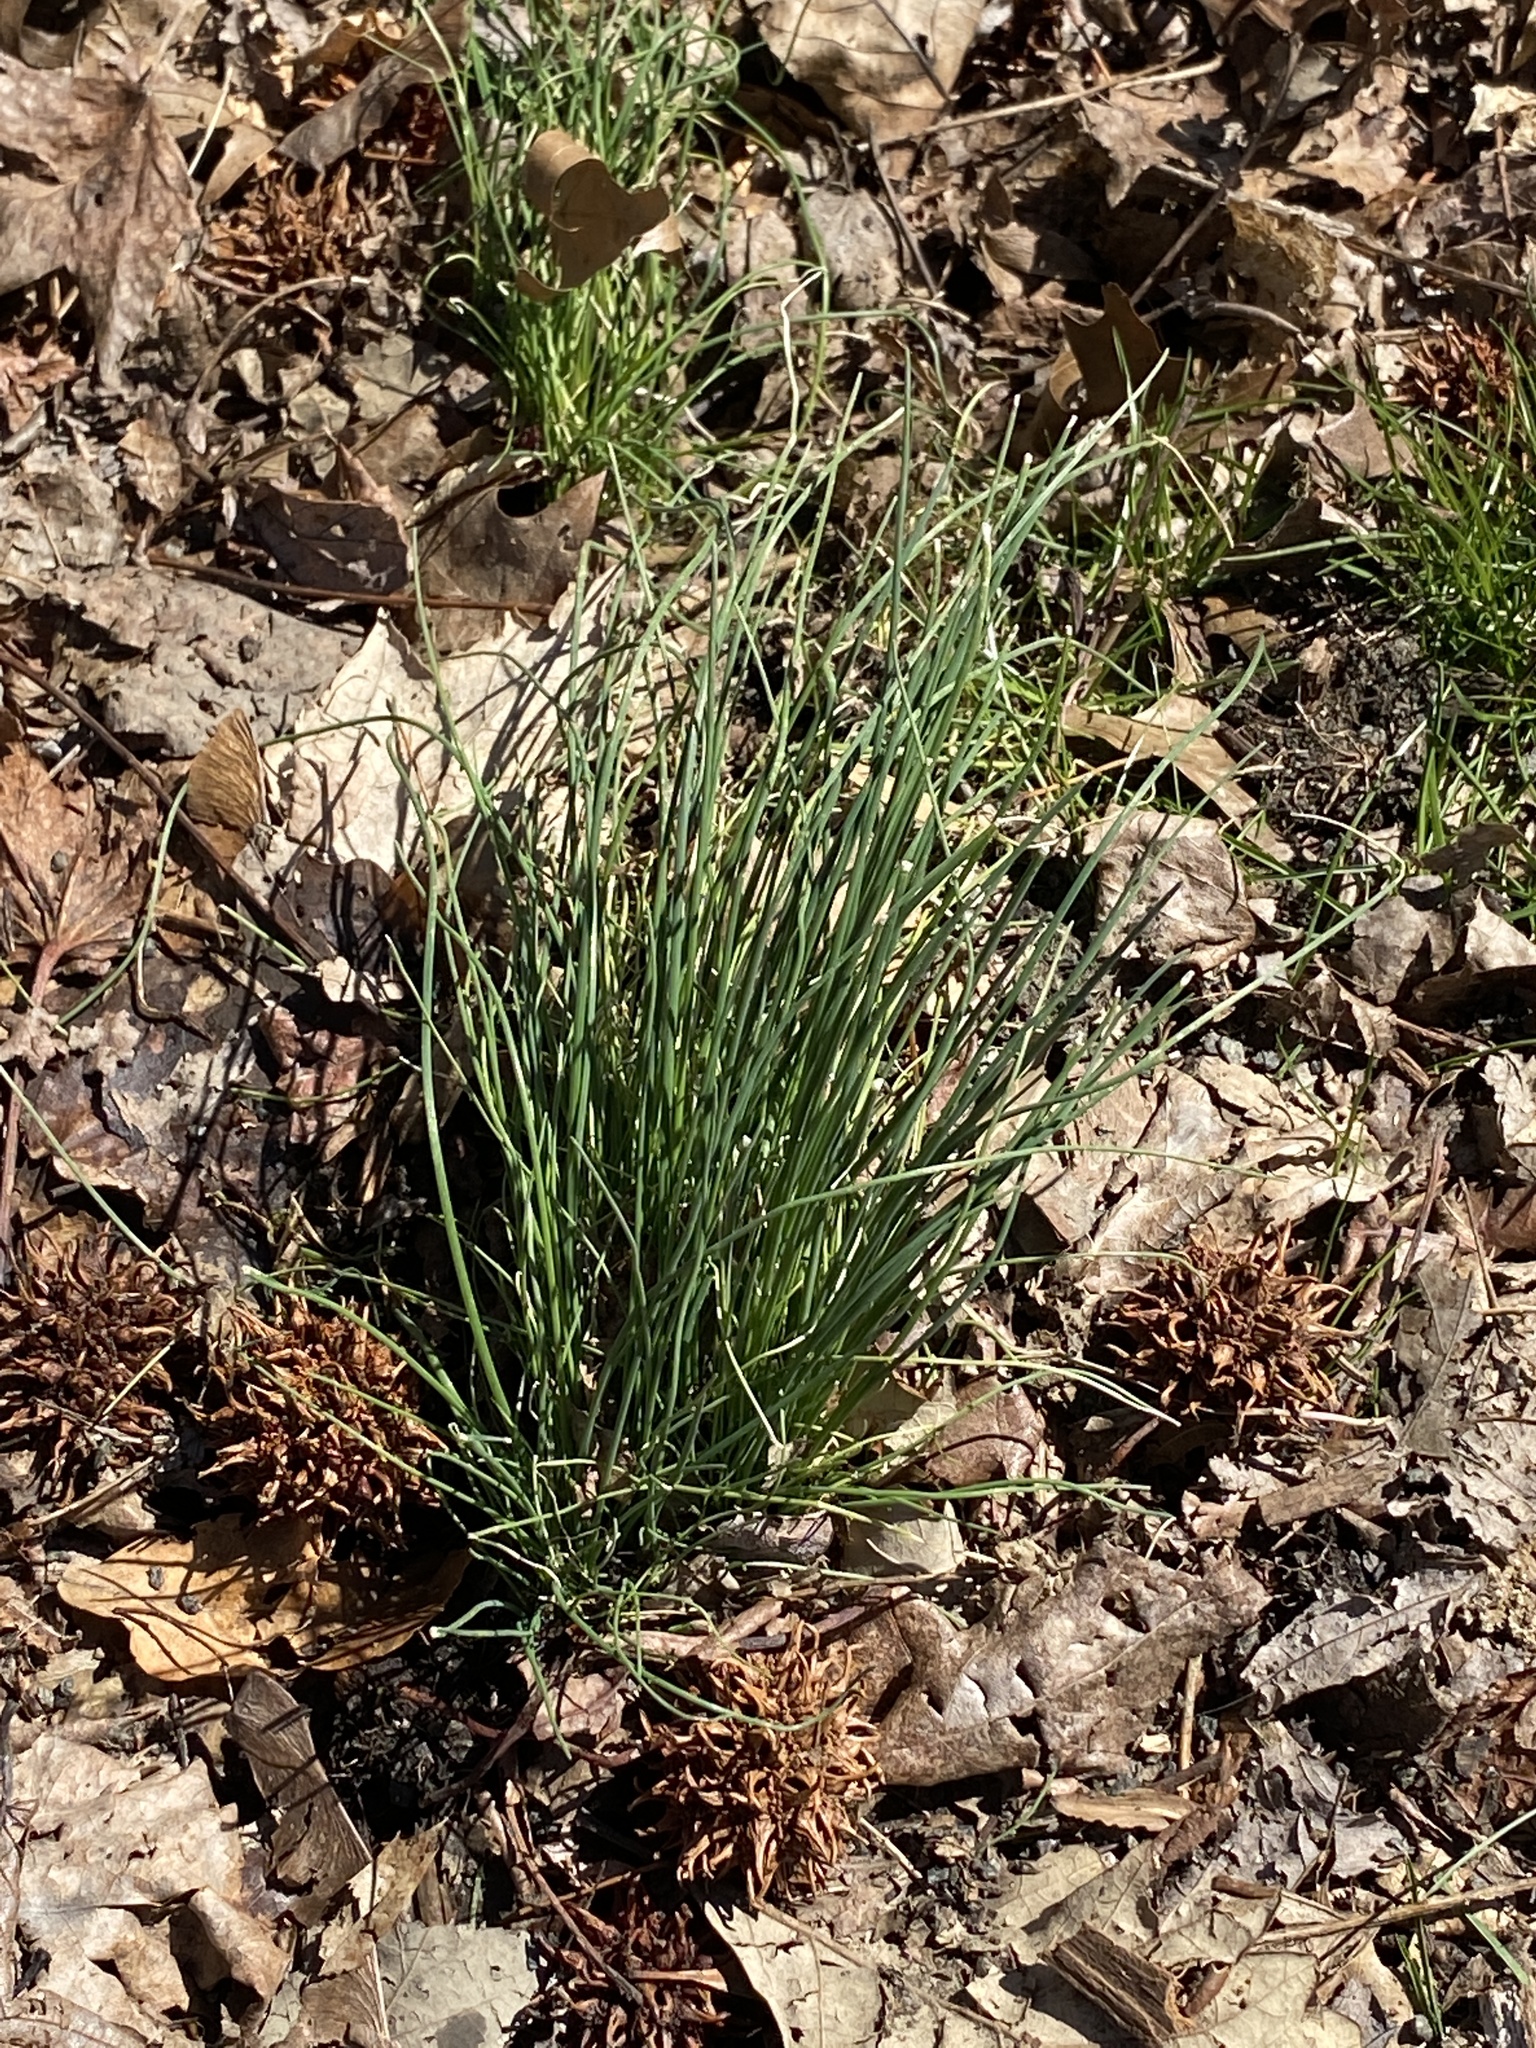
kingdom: Plantae
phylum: Tracheophyta
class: Liliopsida
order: Asparagales
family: Amaryllidaceae
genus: Allium
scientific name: Allium vineale
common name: Crow garlic
